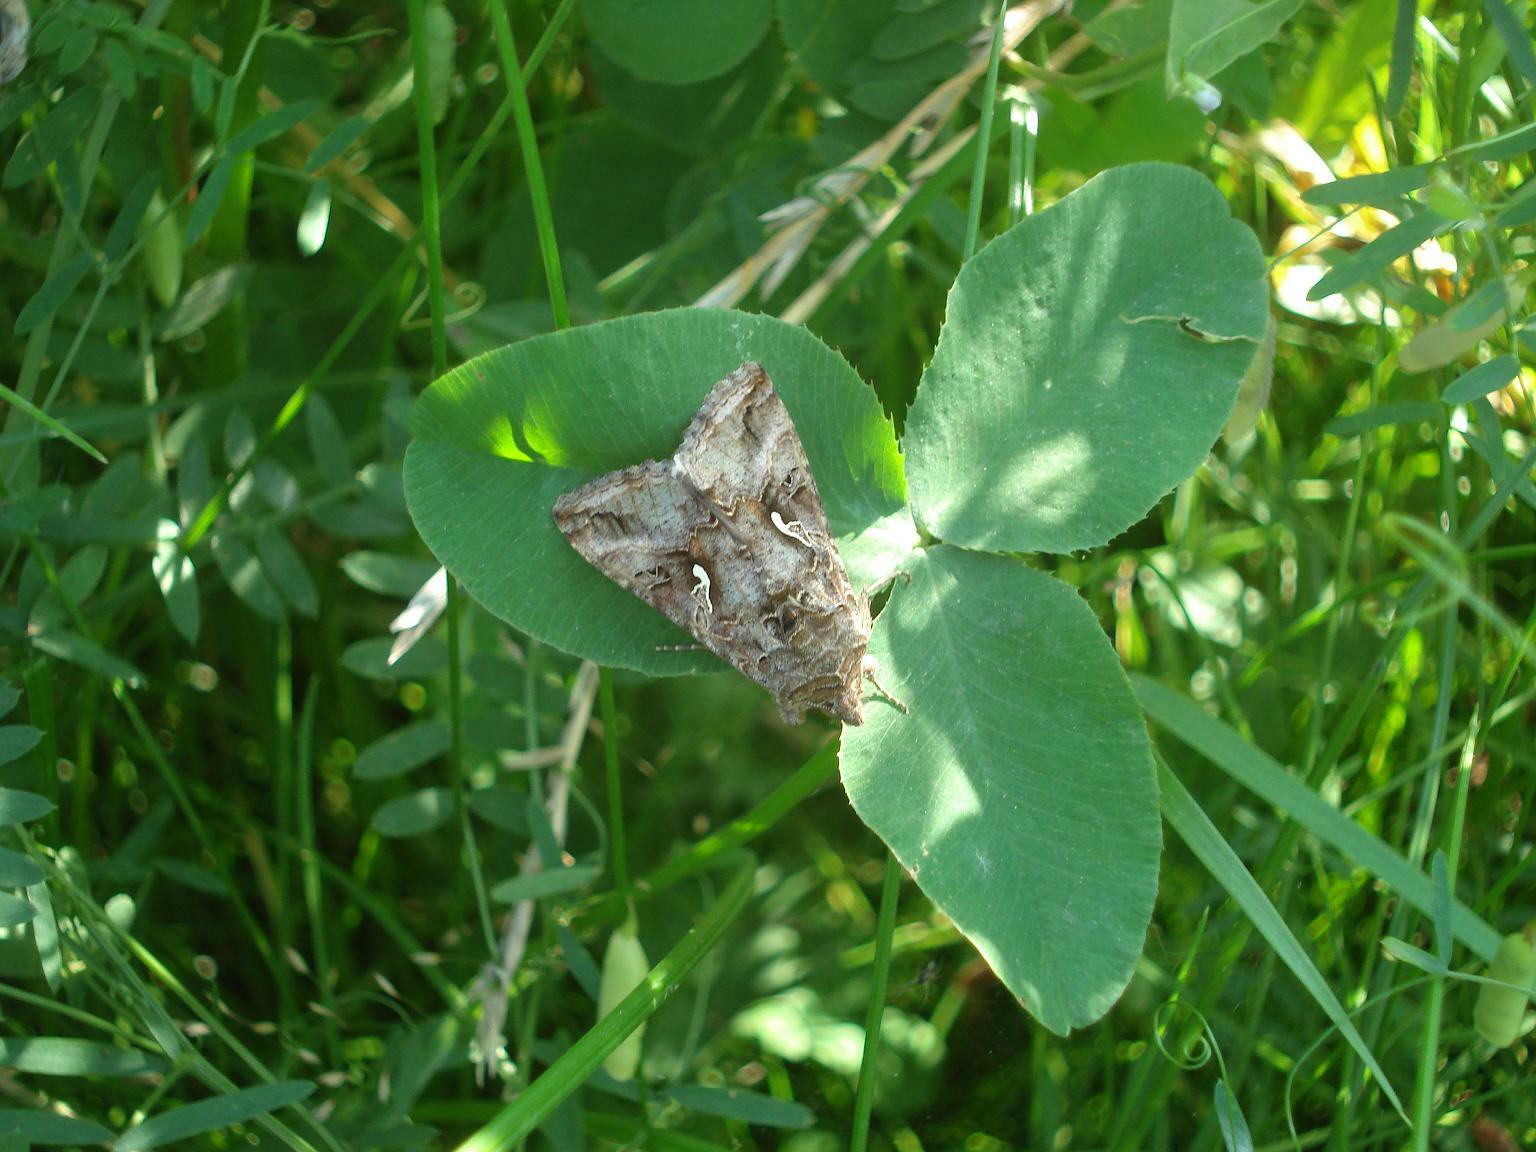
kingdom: Animalia
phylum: Arthropoda
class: Insecta
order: Lepidoptera
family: Noctuidae
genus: Autographa
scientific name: Autographa gamma
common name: Silver y
